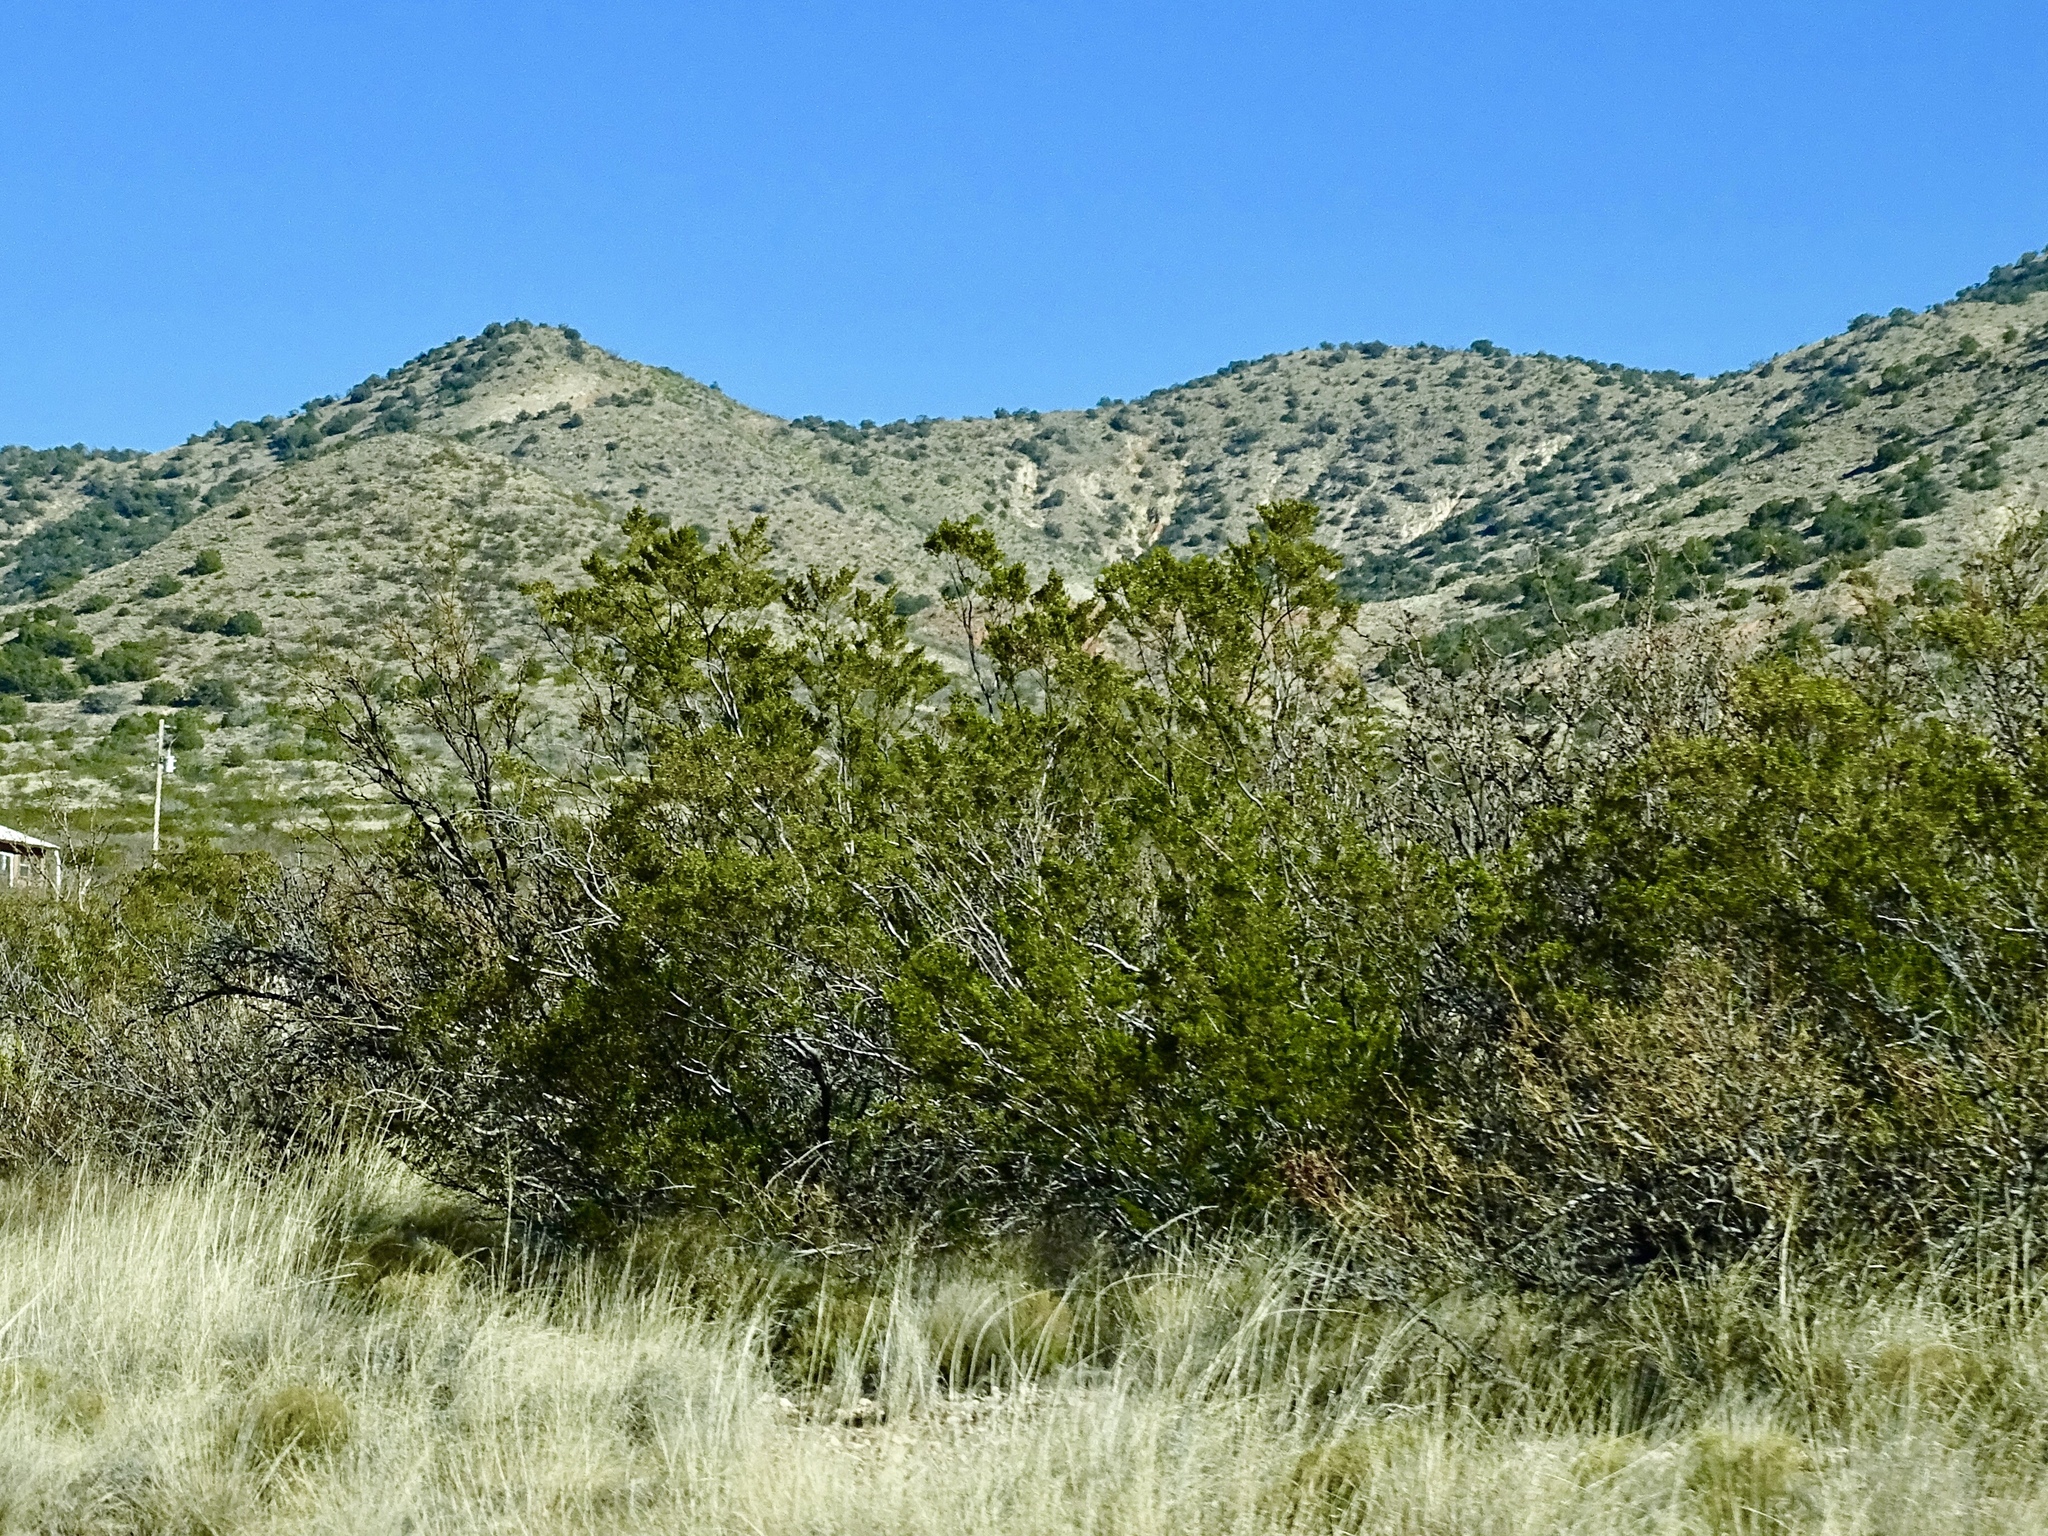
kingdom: Plantae
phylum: Tracheophyta
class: Magnoliopsida
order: Zygophyllales
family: Zygophyllaceae
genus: Larrea
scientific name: Larrea tridentata
